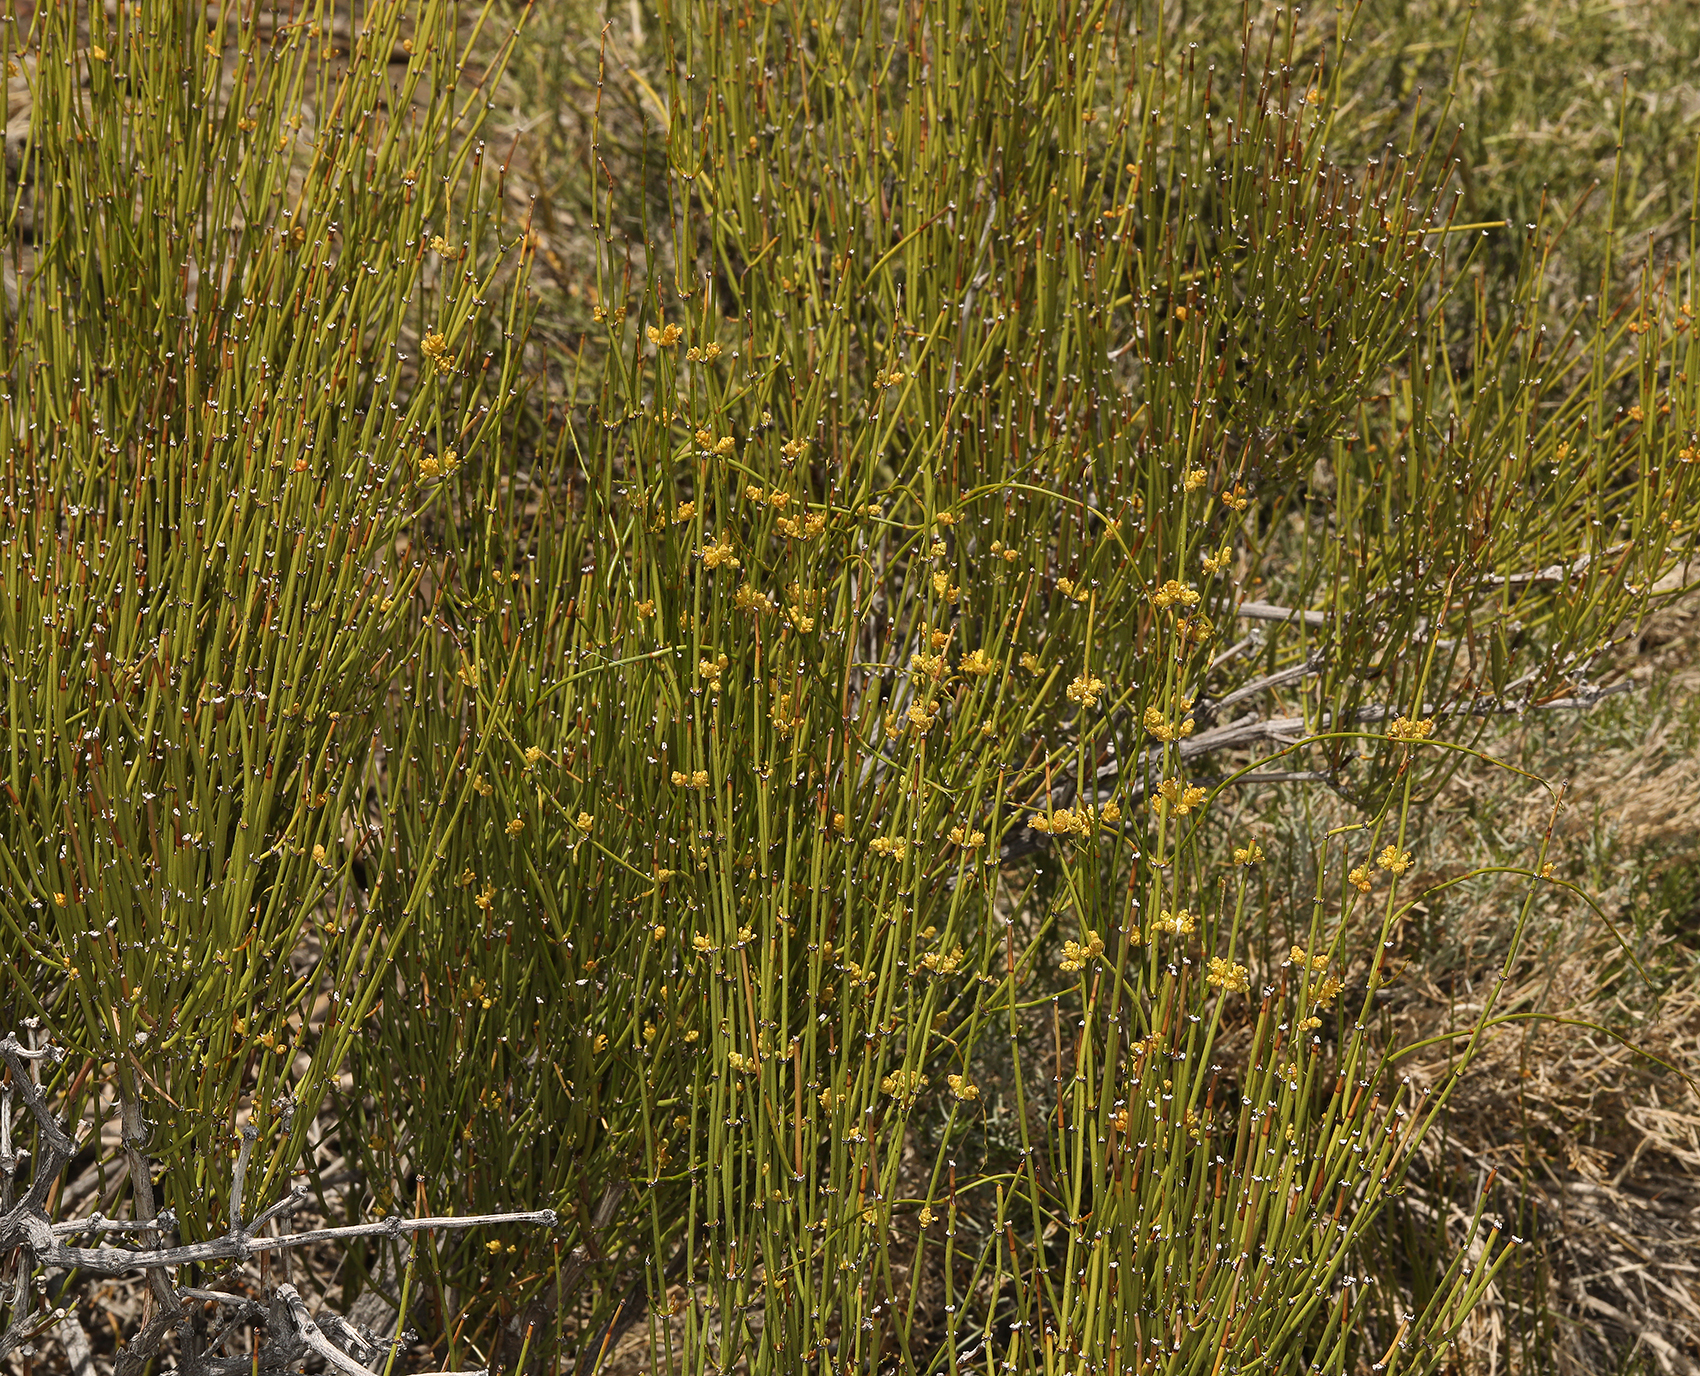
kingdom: Plantae
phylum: Tracheophyta
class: Gnetopsida
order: Ephedrales
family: Ephedraceae
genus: Ephedra
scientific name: Ephedra viridis
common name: Green ephedra
